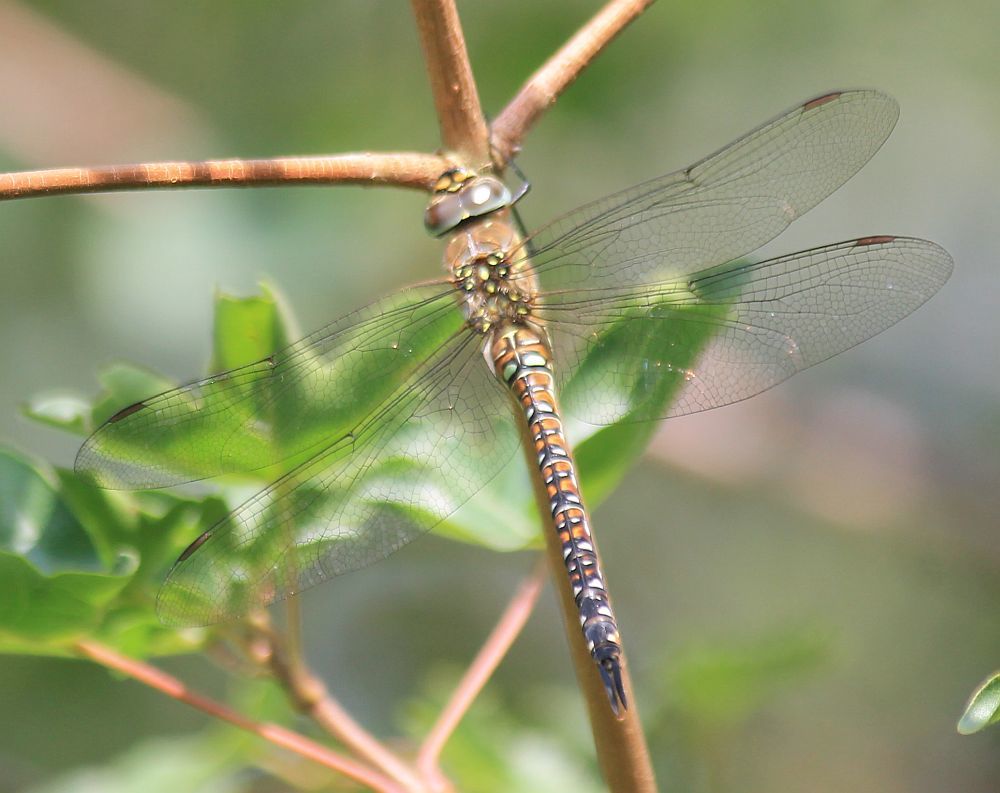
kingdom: Animalia
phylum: Arthropoda
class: Insecta
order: Odonata
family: Aeshnidae
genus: Aeshna
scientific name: Aeshna mixta
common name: Migrant hawker
